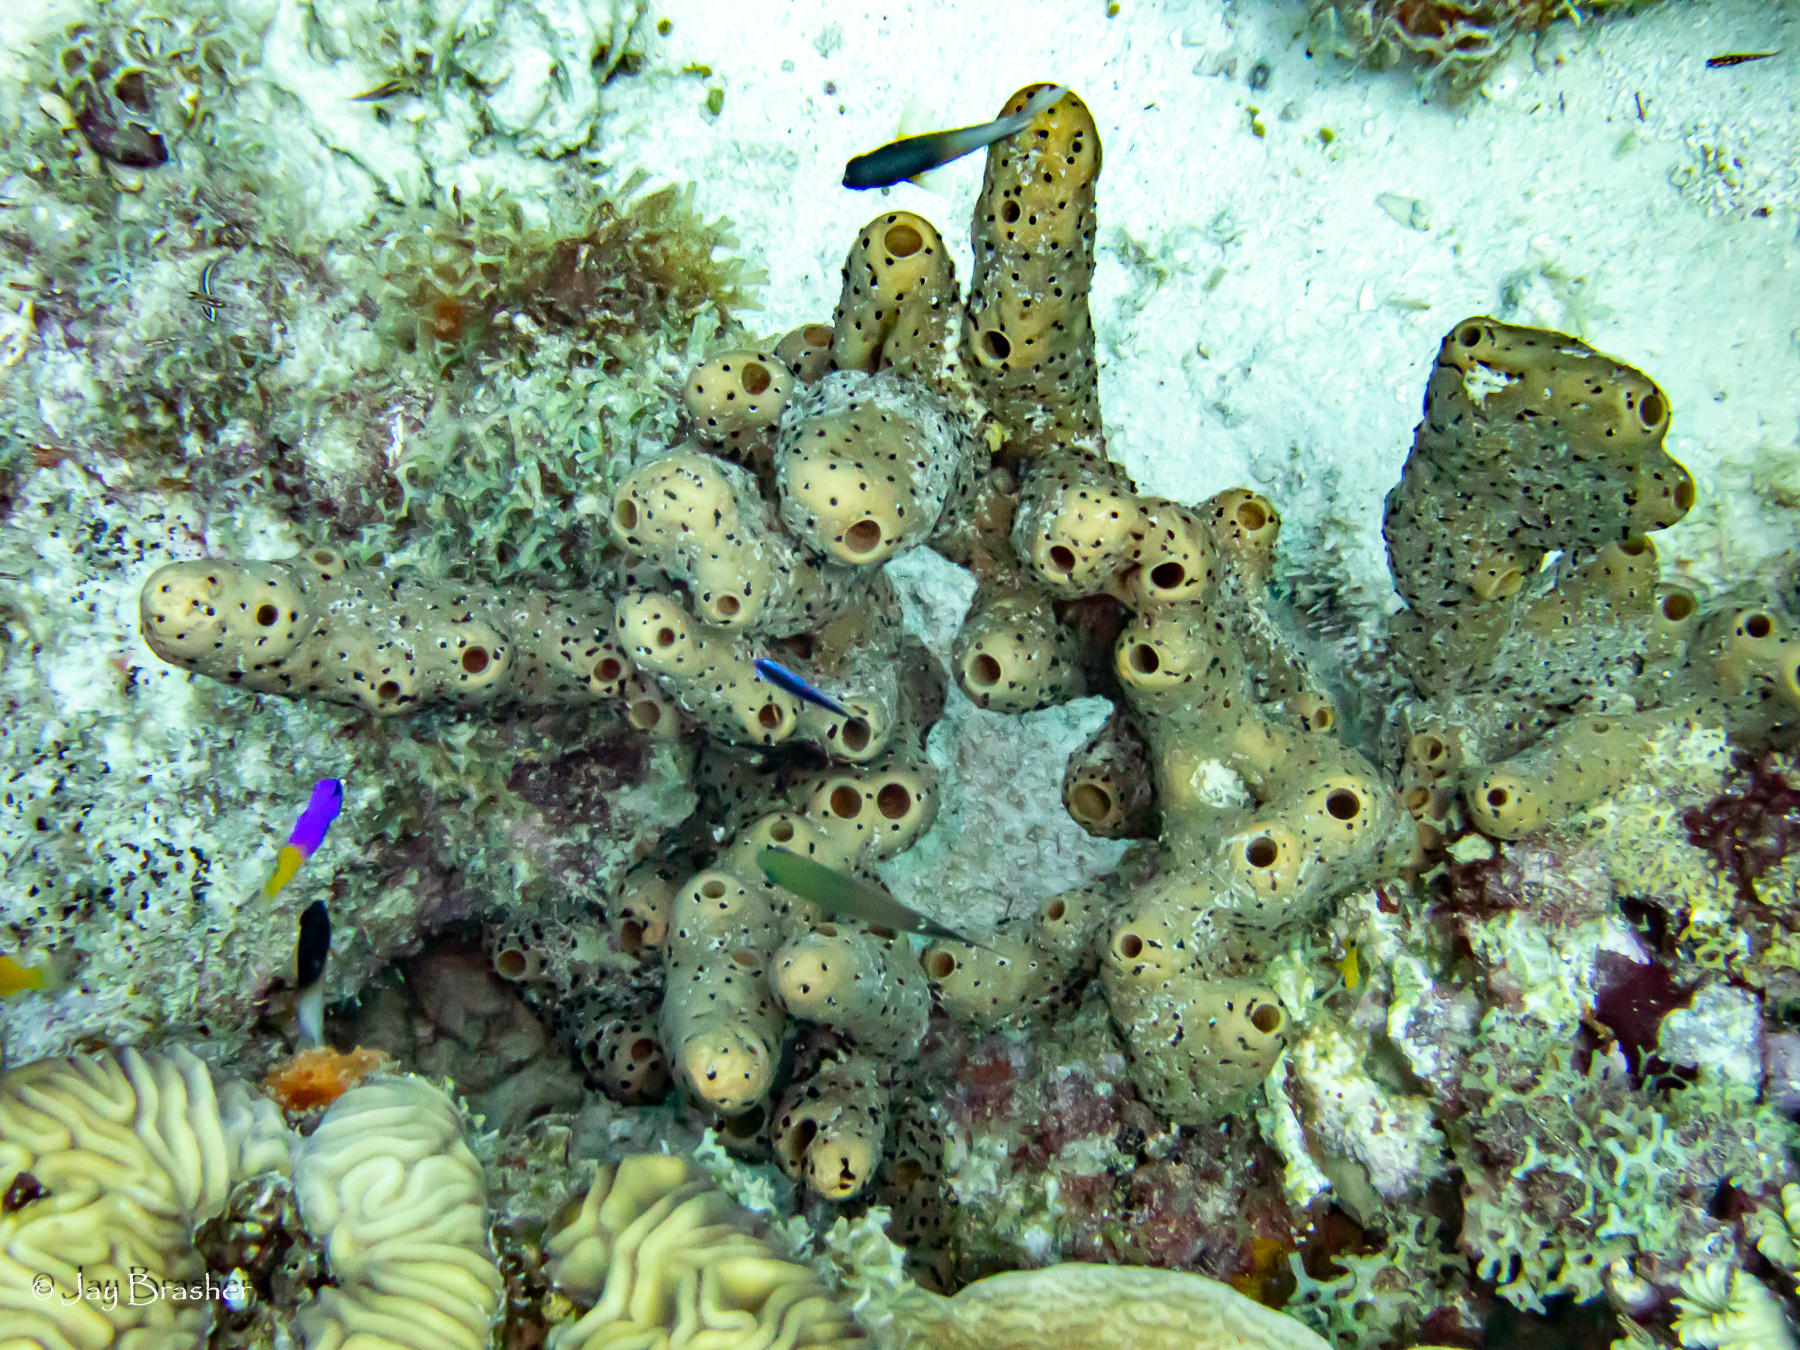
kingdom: Animalia
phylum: Porifera
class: Demospongiae
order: Agelasida
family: Agelasidae
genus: Agelas
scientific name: Agelas conifera
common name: Brown tube sponge
